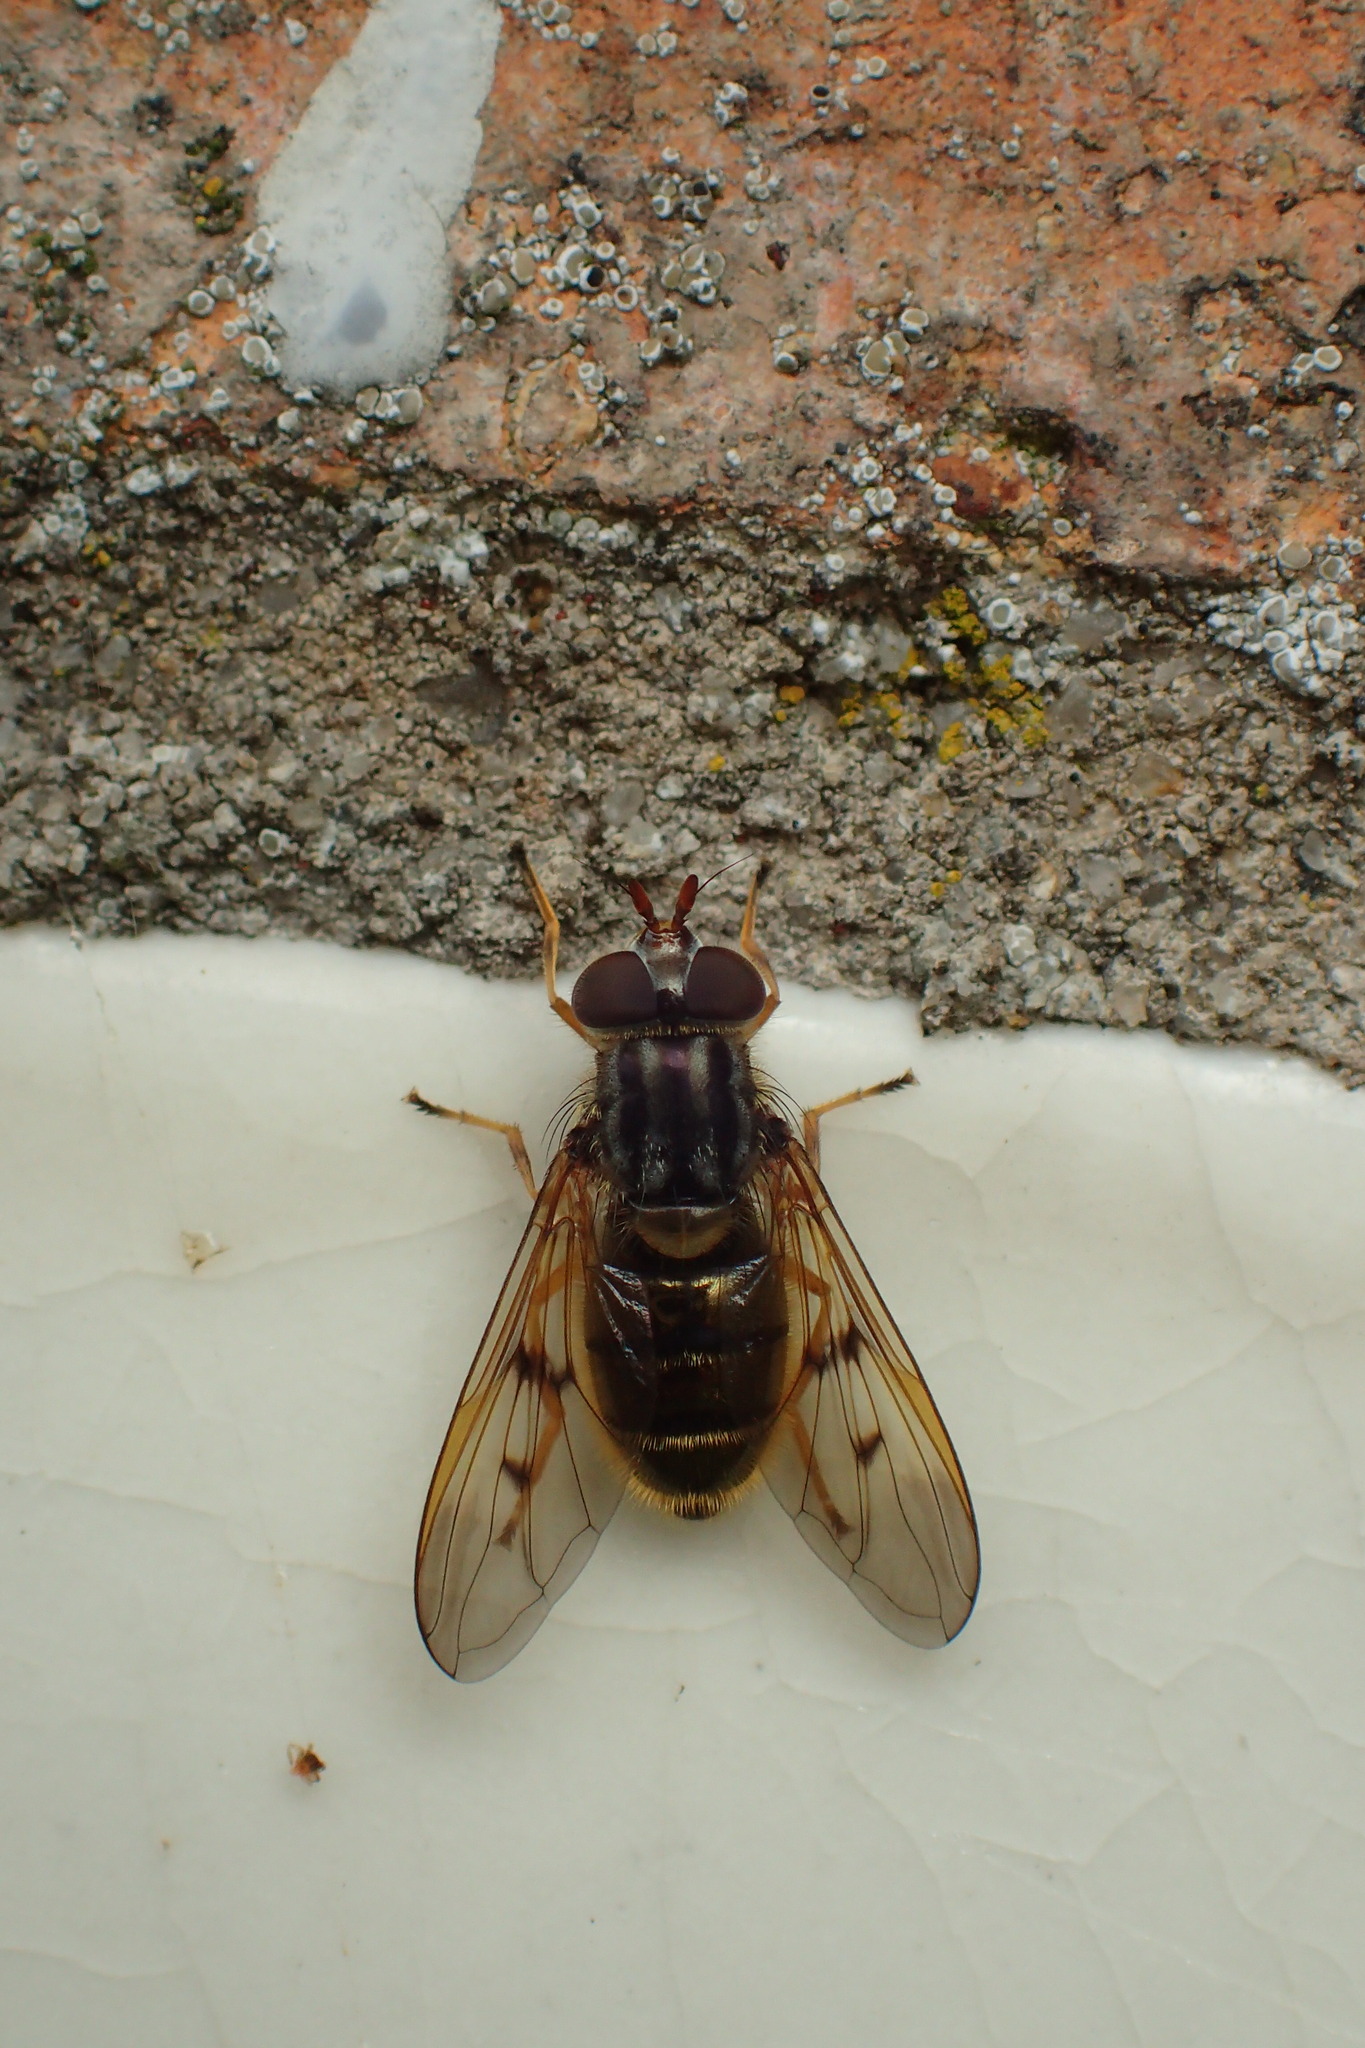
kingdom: Animalia
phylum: Arthropoda
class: Insecta
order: Diptera
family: Syrphidae
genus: Ferdinandea
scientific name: Ferdinandea cuprea
